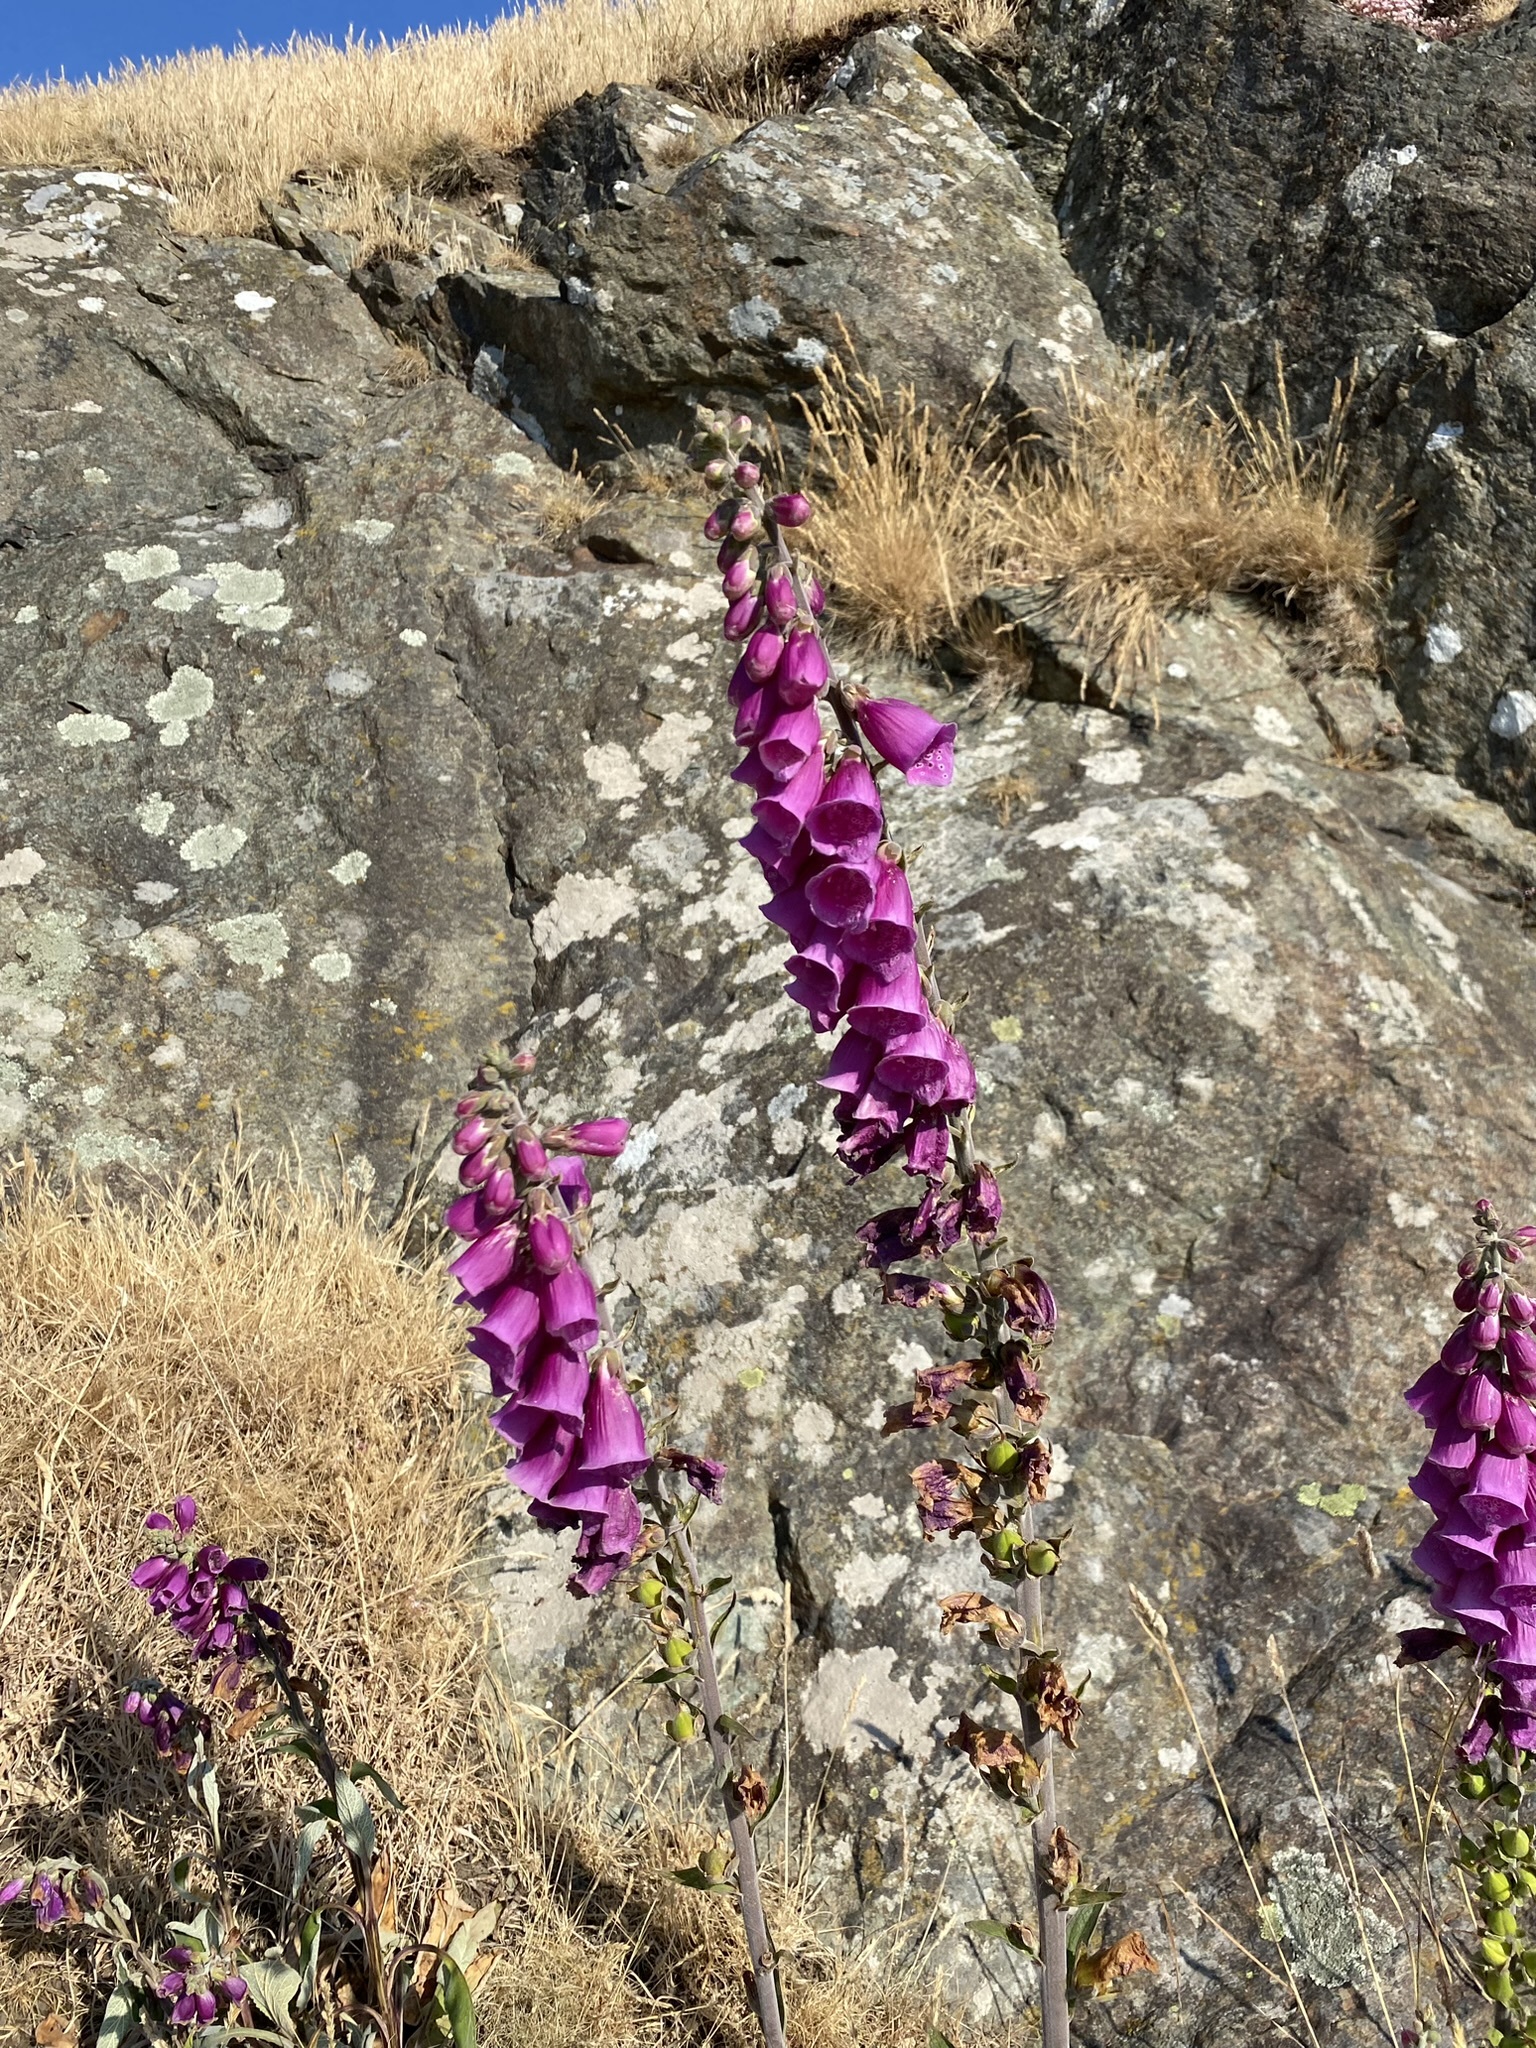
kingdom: Plantae
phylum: Tracheophyta
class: Magnoliopsida
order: Lamiales
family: Plantaginaceae
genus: Digitalis
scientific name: Digitalis purpurea
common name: Foxglove
